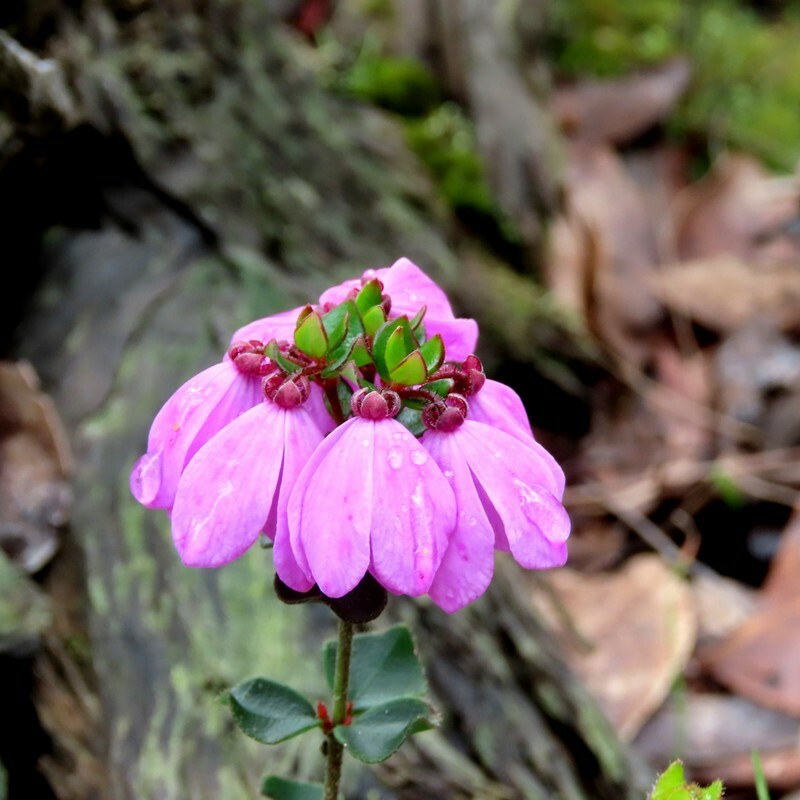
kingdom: Plantae
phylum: Tracheophyta
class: Magnoliopsida
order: Oxalidales
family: Elaeocarpaceae
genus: Tetratheca
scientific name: Tetratheca ciliata
